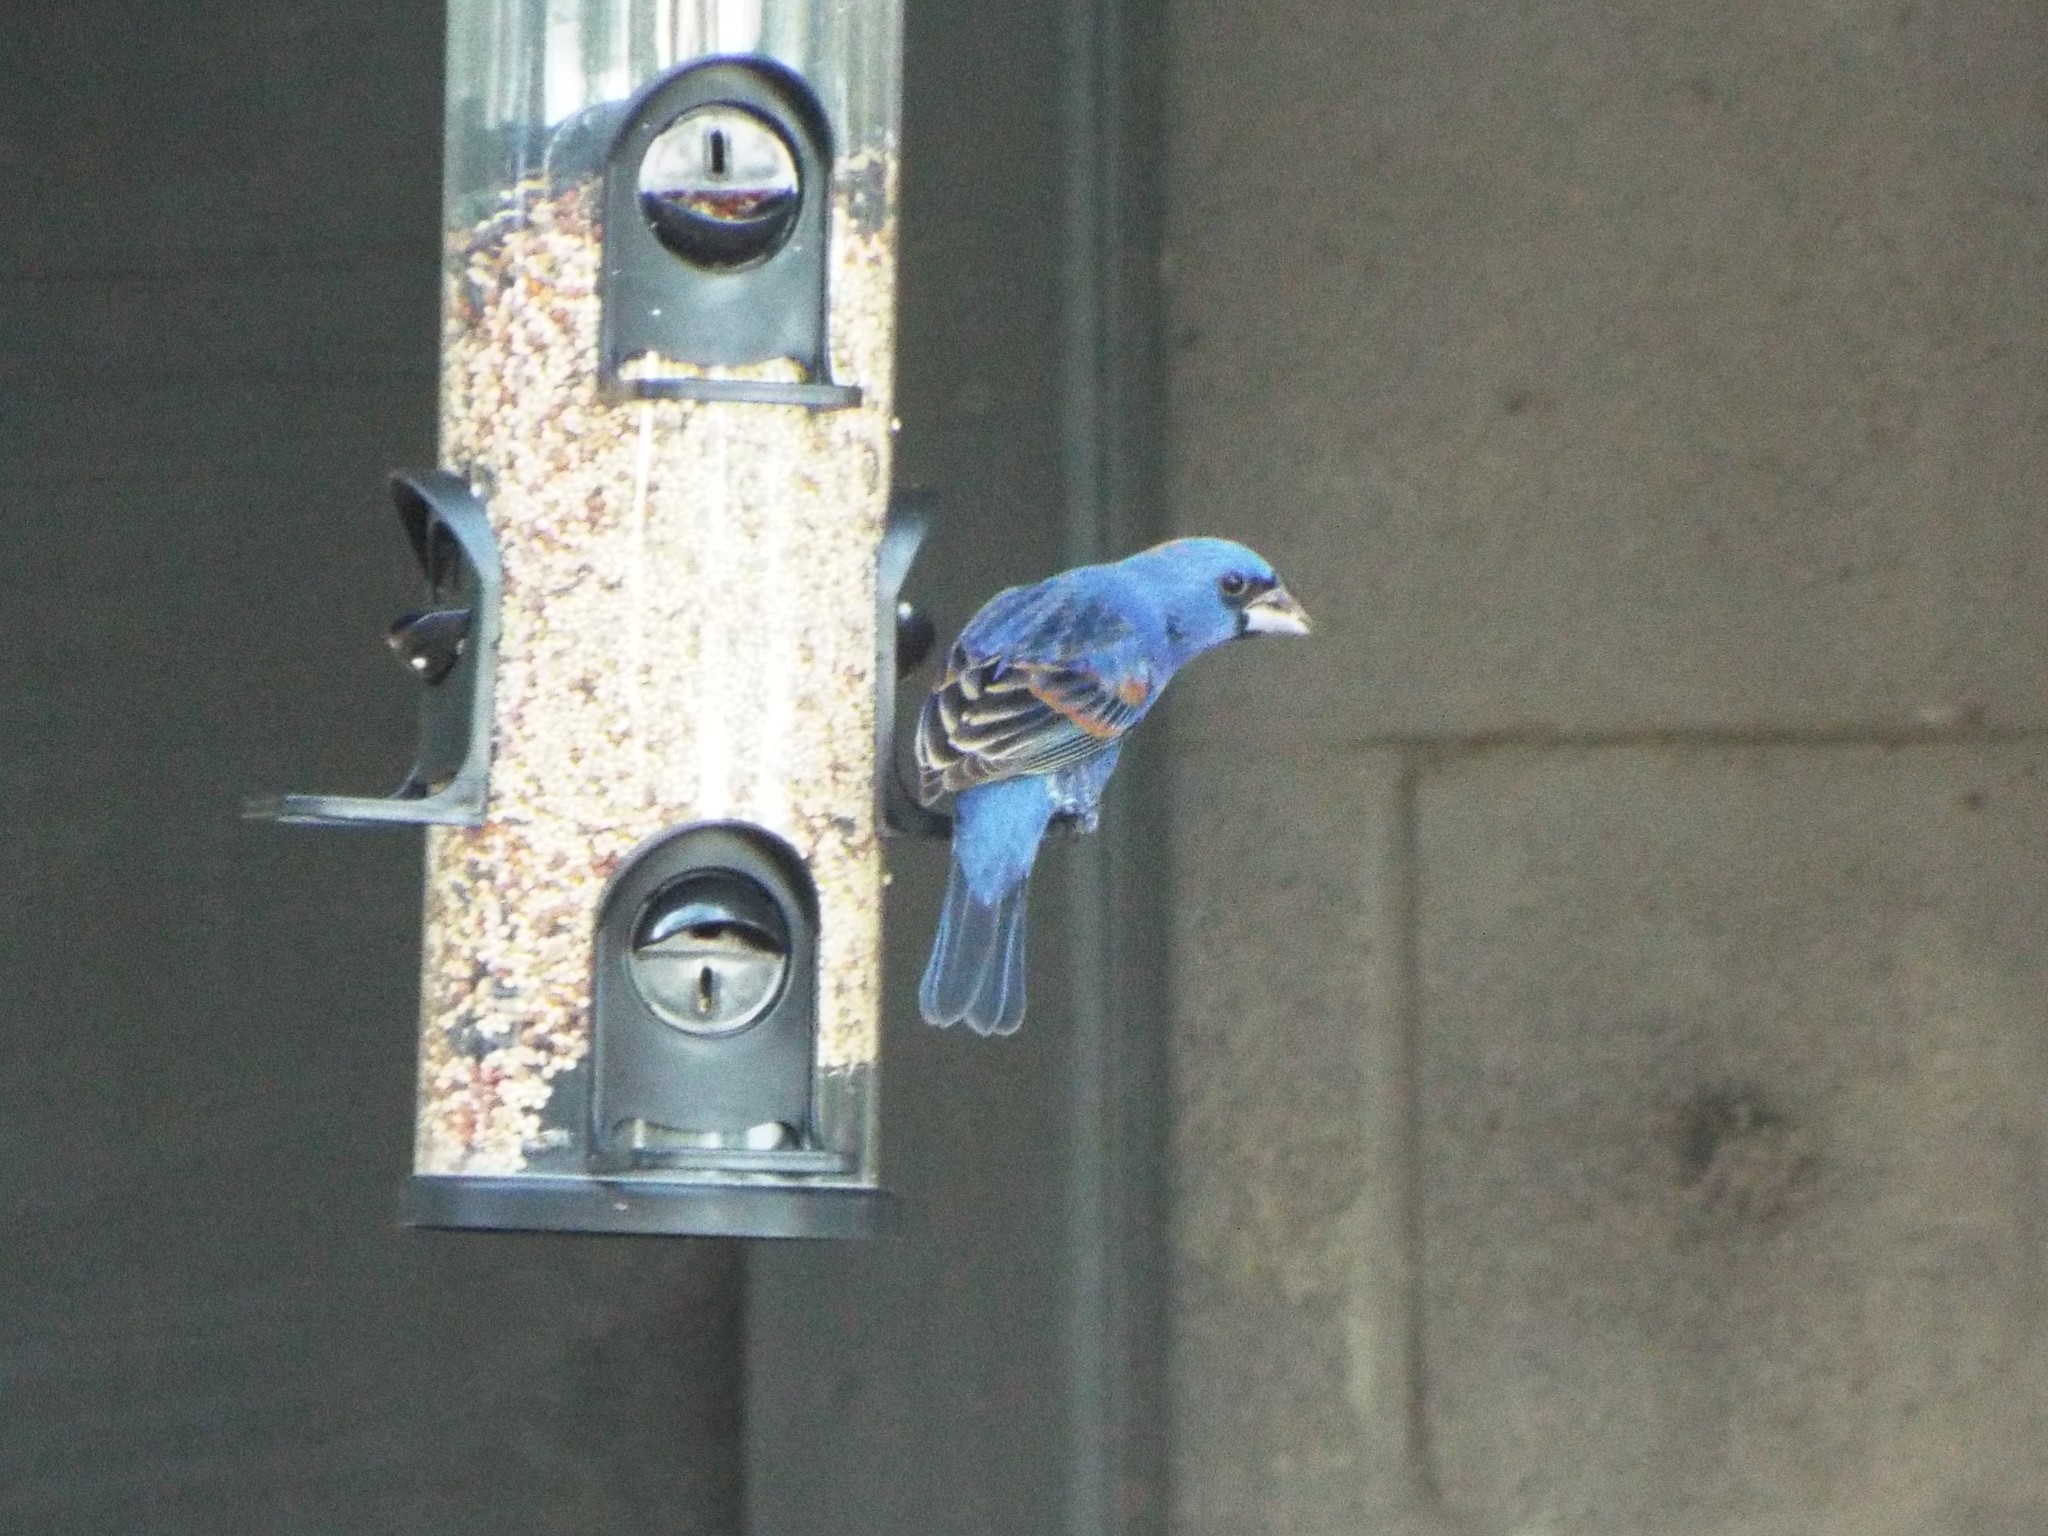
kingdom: Animalia
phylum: Chordata
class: Aves
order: Passeriformes
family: Cardinalidae
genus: Passerina
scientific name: Passerina caerulea
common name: Blue grosbeak
